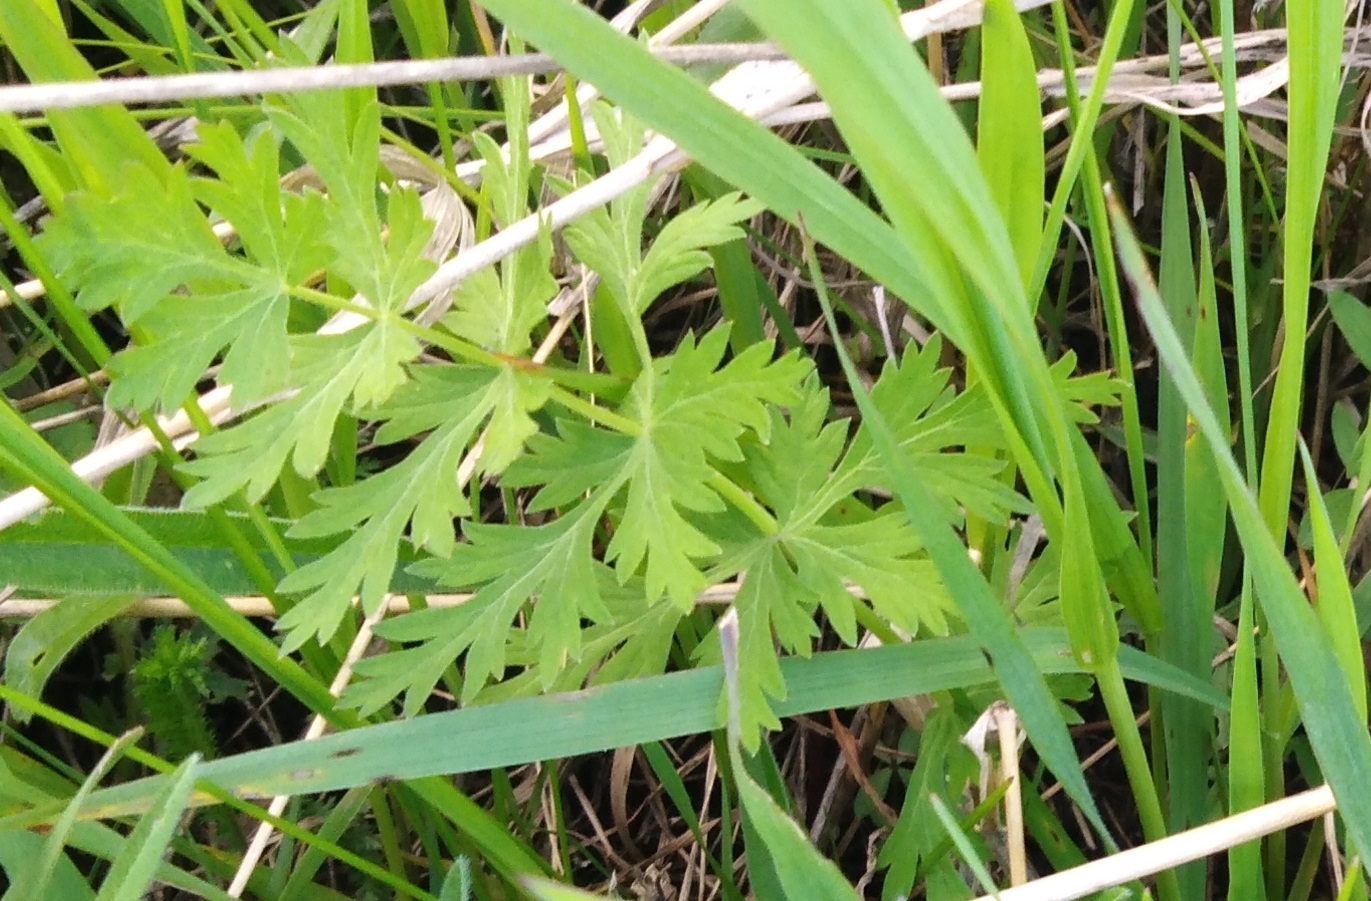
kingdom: Plantae
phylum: Tracheophyta
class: Magnoliopsida
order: Apiales
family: Apiaceae
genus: Seseli
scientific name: Seseli libanotis
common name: Mooncarrot
